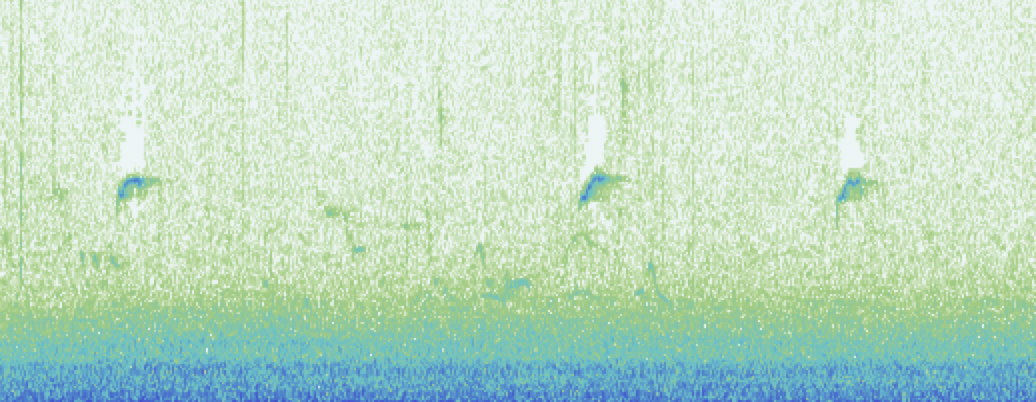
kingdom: Animalia
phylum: Chordata
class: Aves
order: Passeriformes
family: Phylloscopidae
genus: Phylloscopus
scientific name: Phylloscopus collybita
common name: Common chiffchaff
